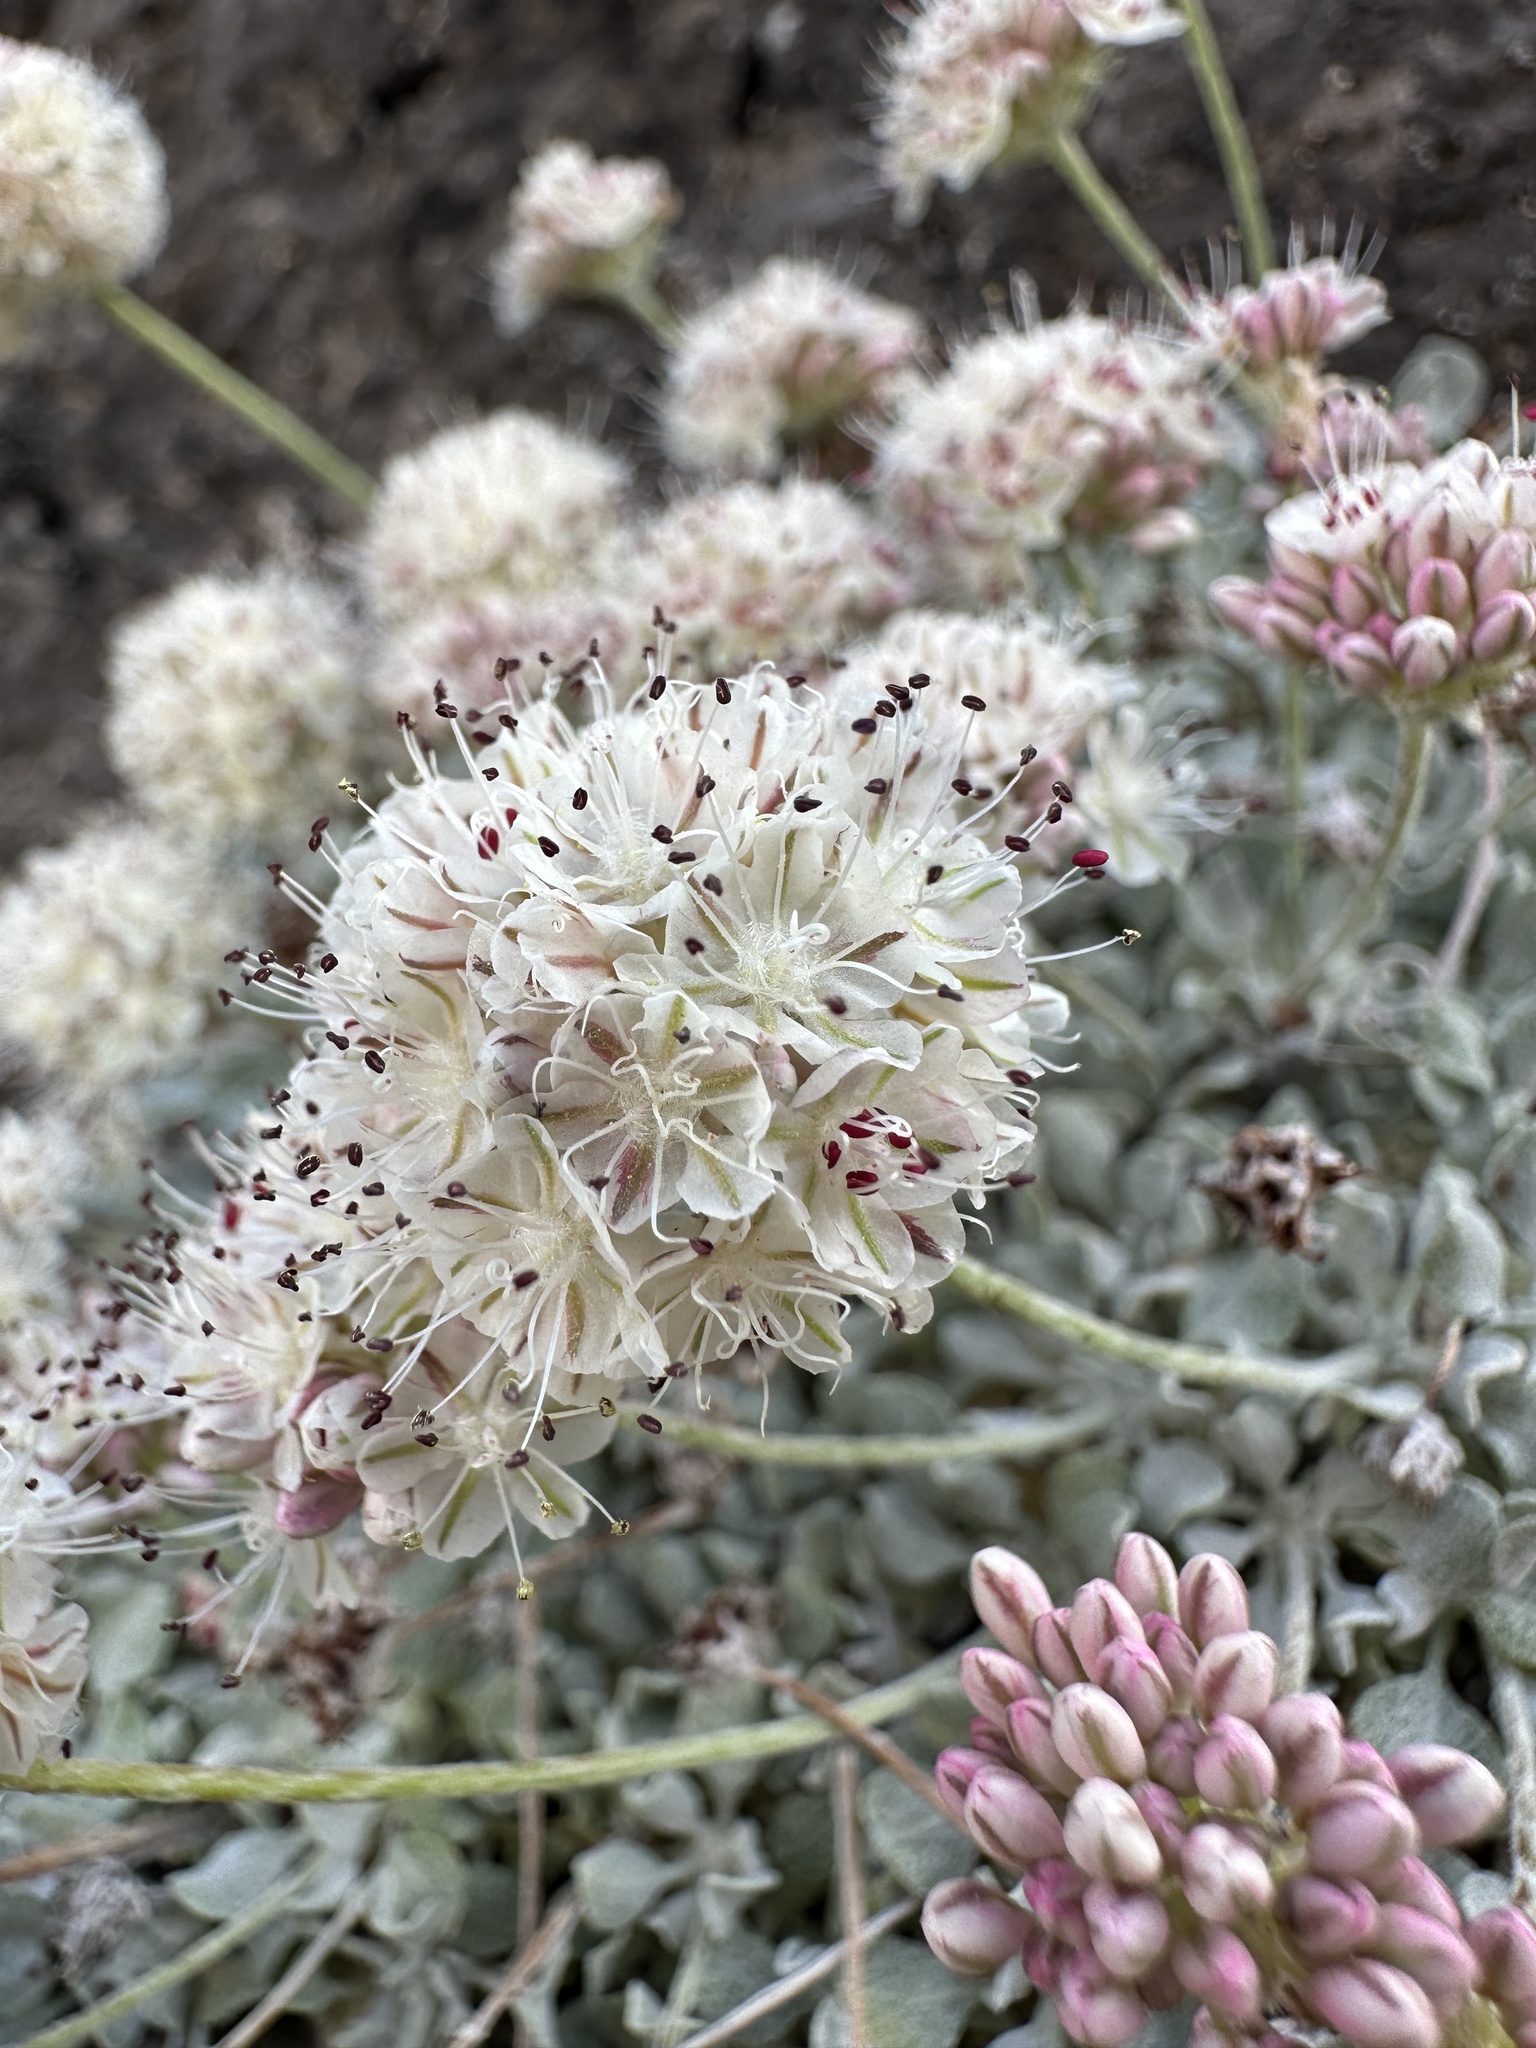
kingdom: Plantae
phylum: Tracheophyta
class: Magnoliopsida
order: Caryophyllales
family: Polygonaceae
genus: Eriogonum
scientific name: Eriogonum ovalifolium
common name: Cushion buckwheat
